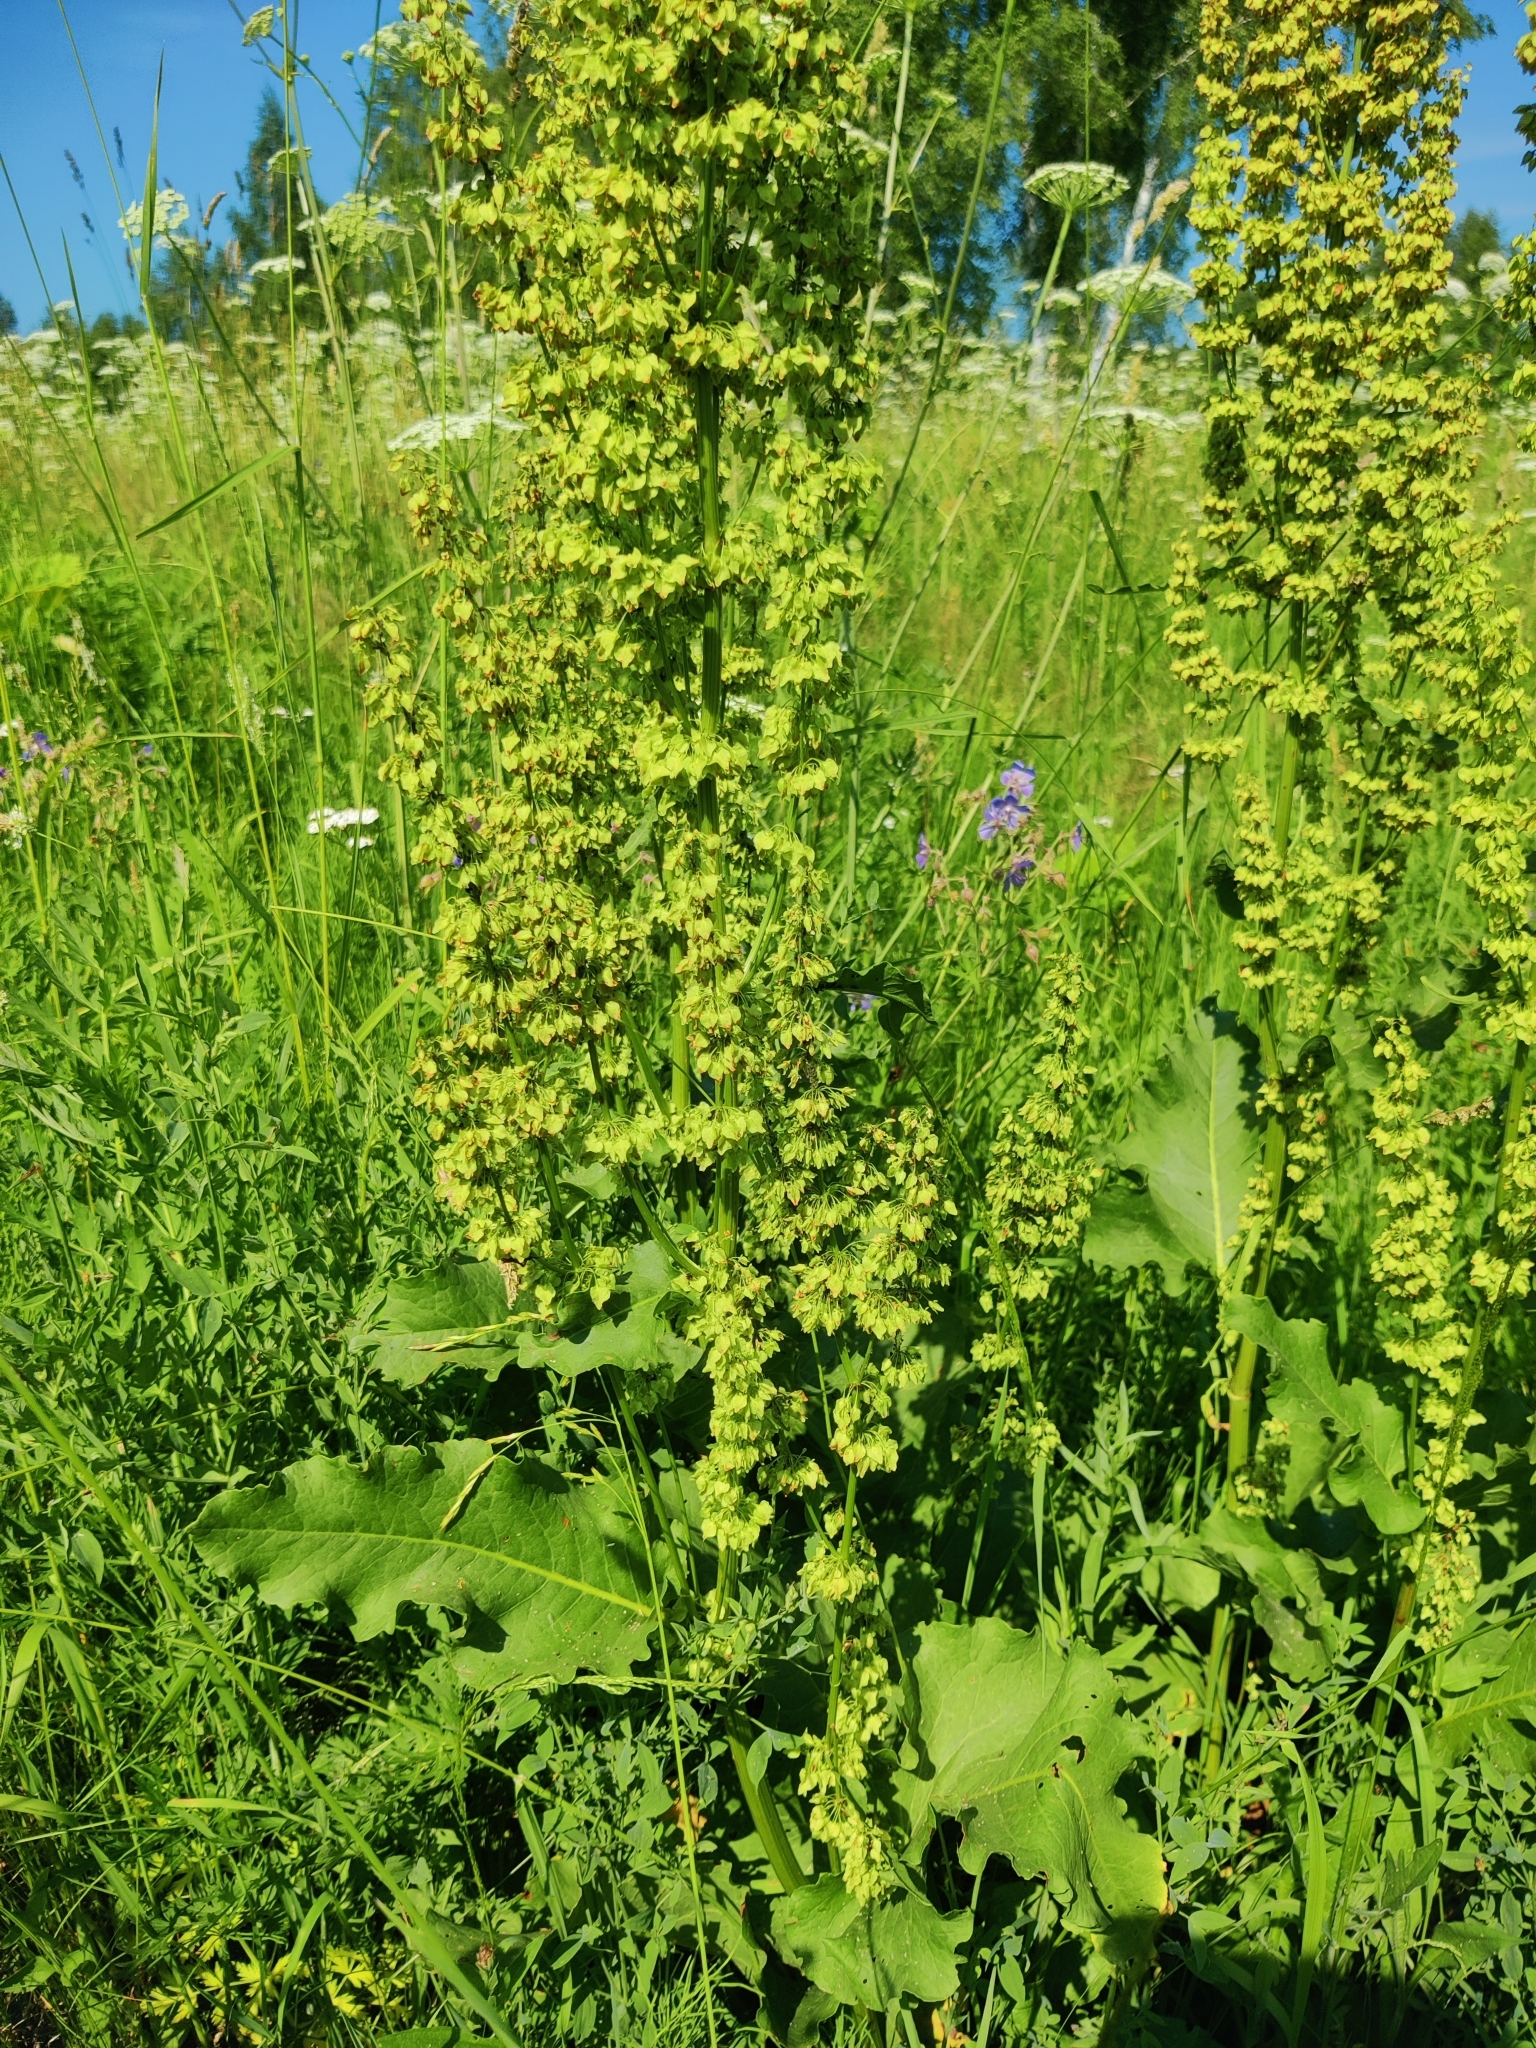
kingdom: Plantae
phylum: Tracheophyta
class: Magnoliopsida
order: Caryophyllales
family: Polygonaceae
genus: Rumex
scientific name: Rumex confertus
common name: Russian dock
